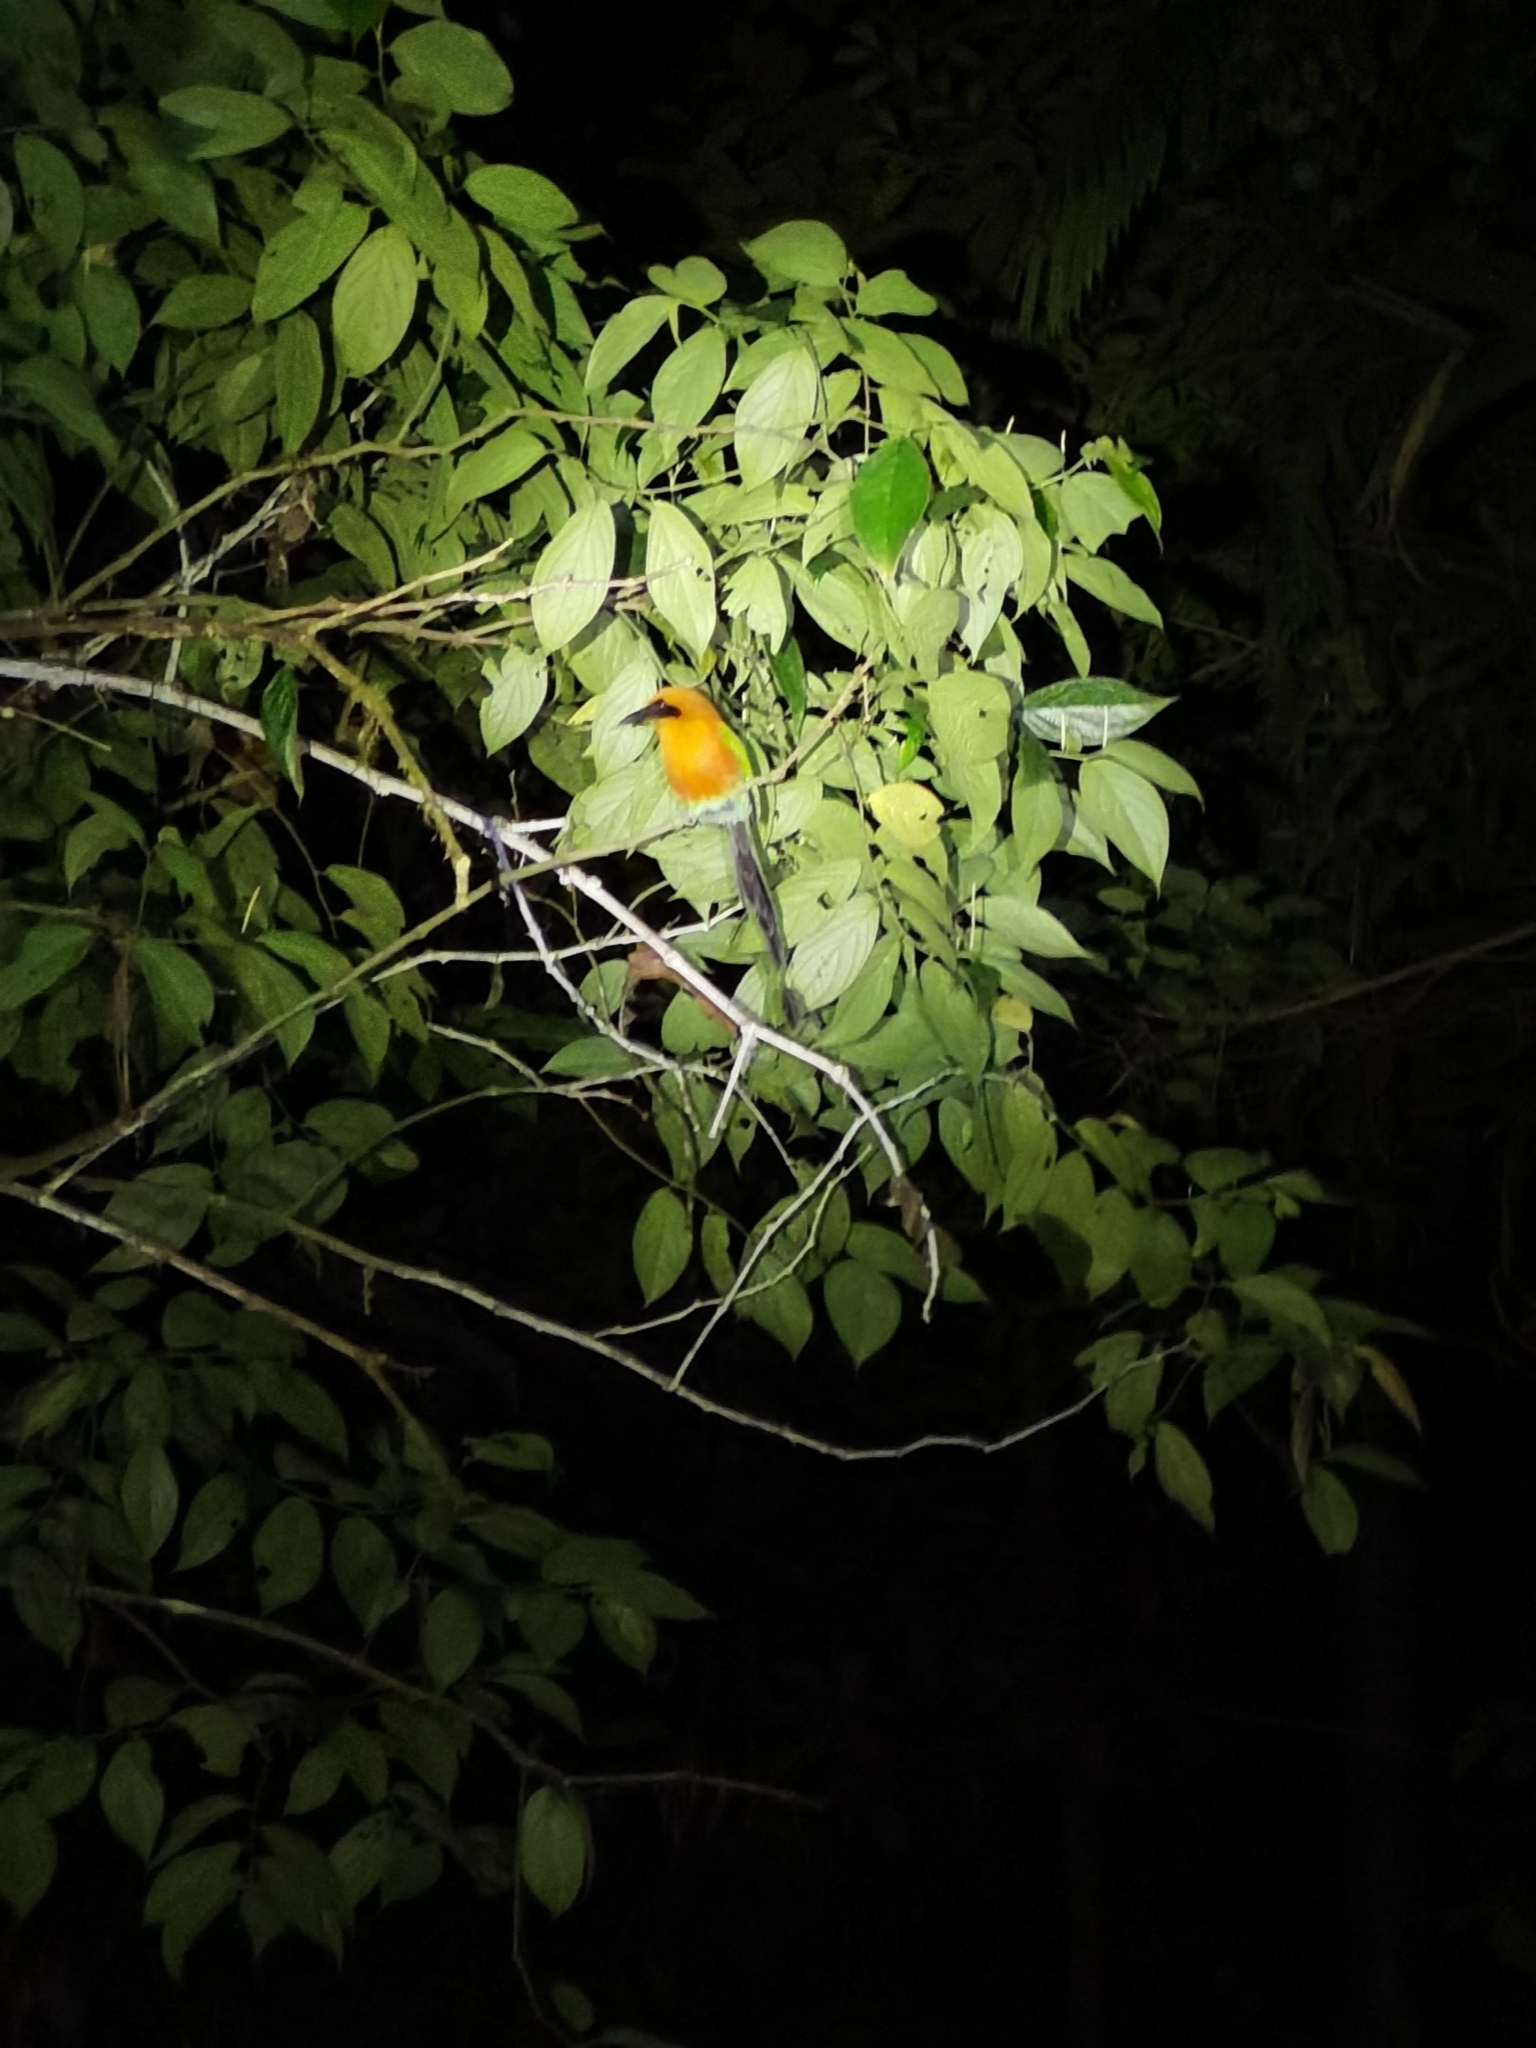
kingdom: Animalia
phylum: Chordata
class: Aves
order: Coraciiformes
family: Momotidae
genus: Baryphthengus
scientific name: Baryphthengus martii
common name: Rufous motmot
